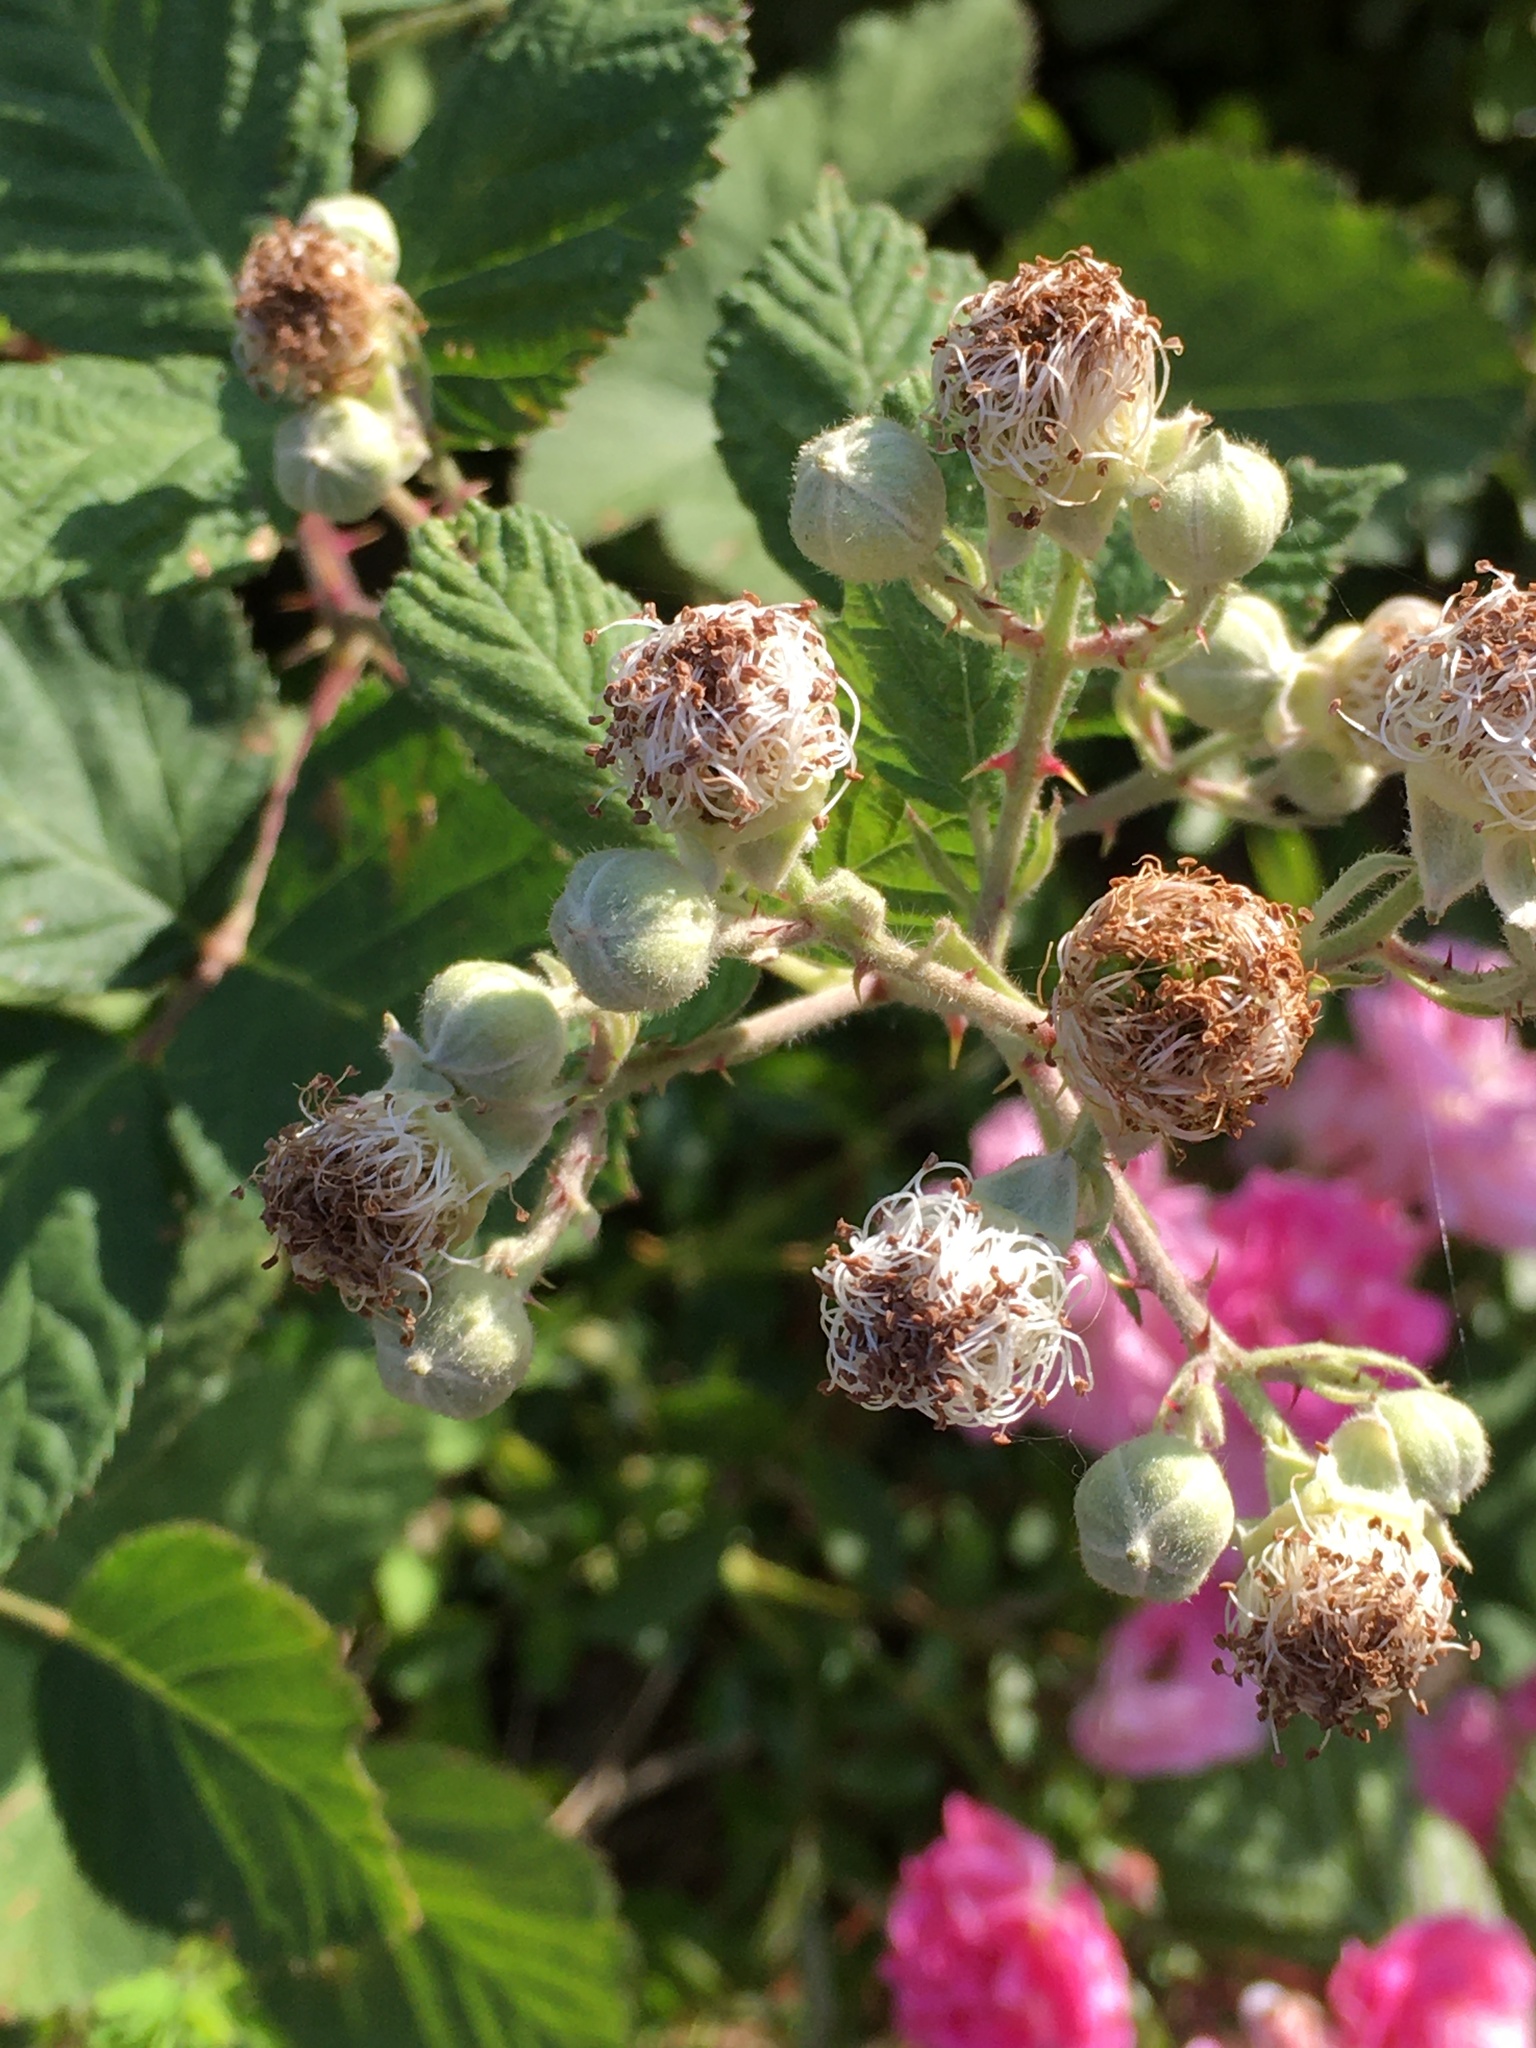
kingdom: Plantae
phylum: Tracheophyta
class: Magnoliopsida
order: Rosales
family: Rosaceae
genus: Rubus
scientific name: Rubus bifrons
